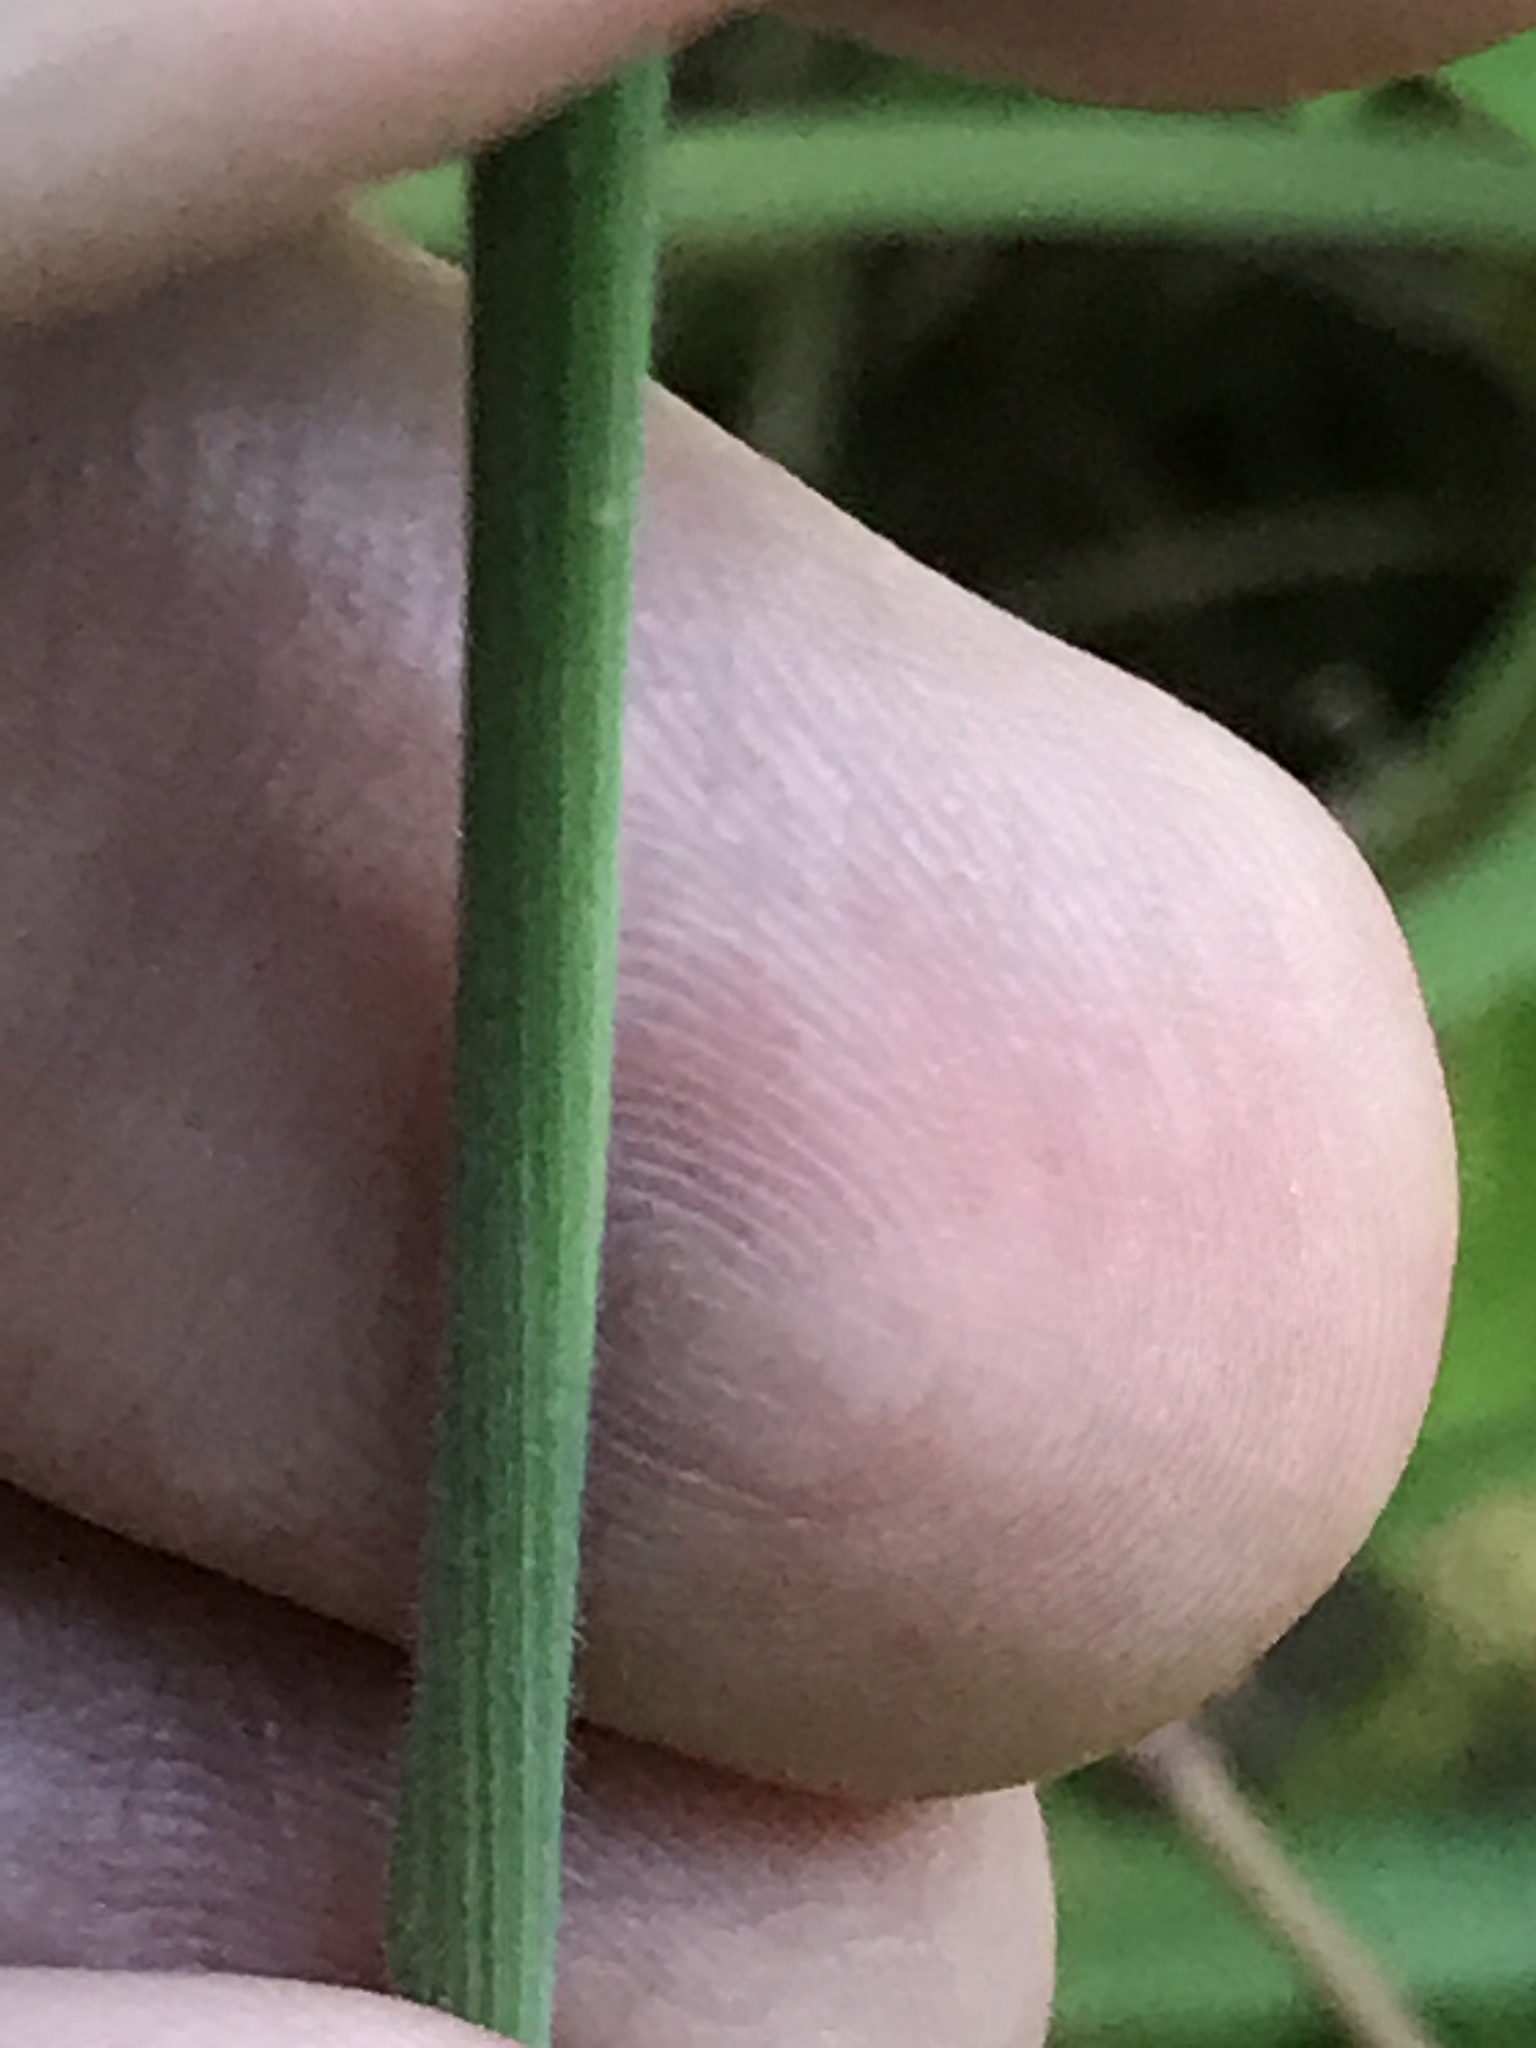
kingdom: Plantae
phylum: Tracheophyta
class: Liliopsida
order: Poales
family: Poaceae
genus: Holcus
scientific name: Holcus lanatus
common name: Yorkshire-fog
